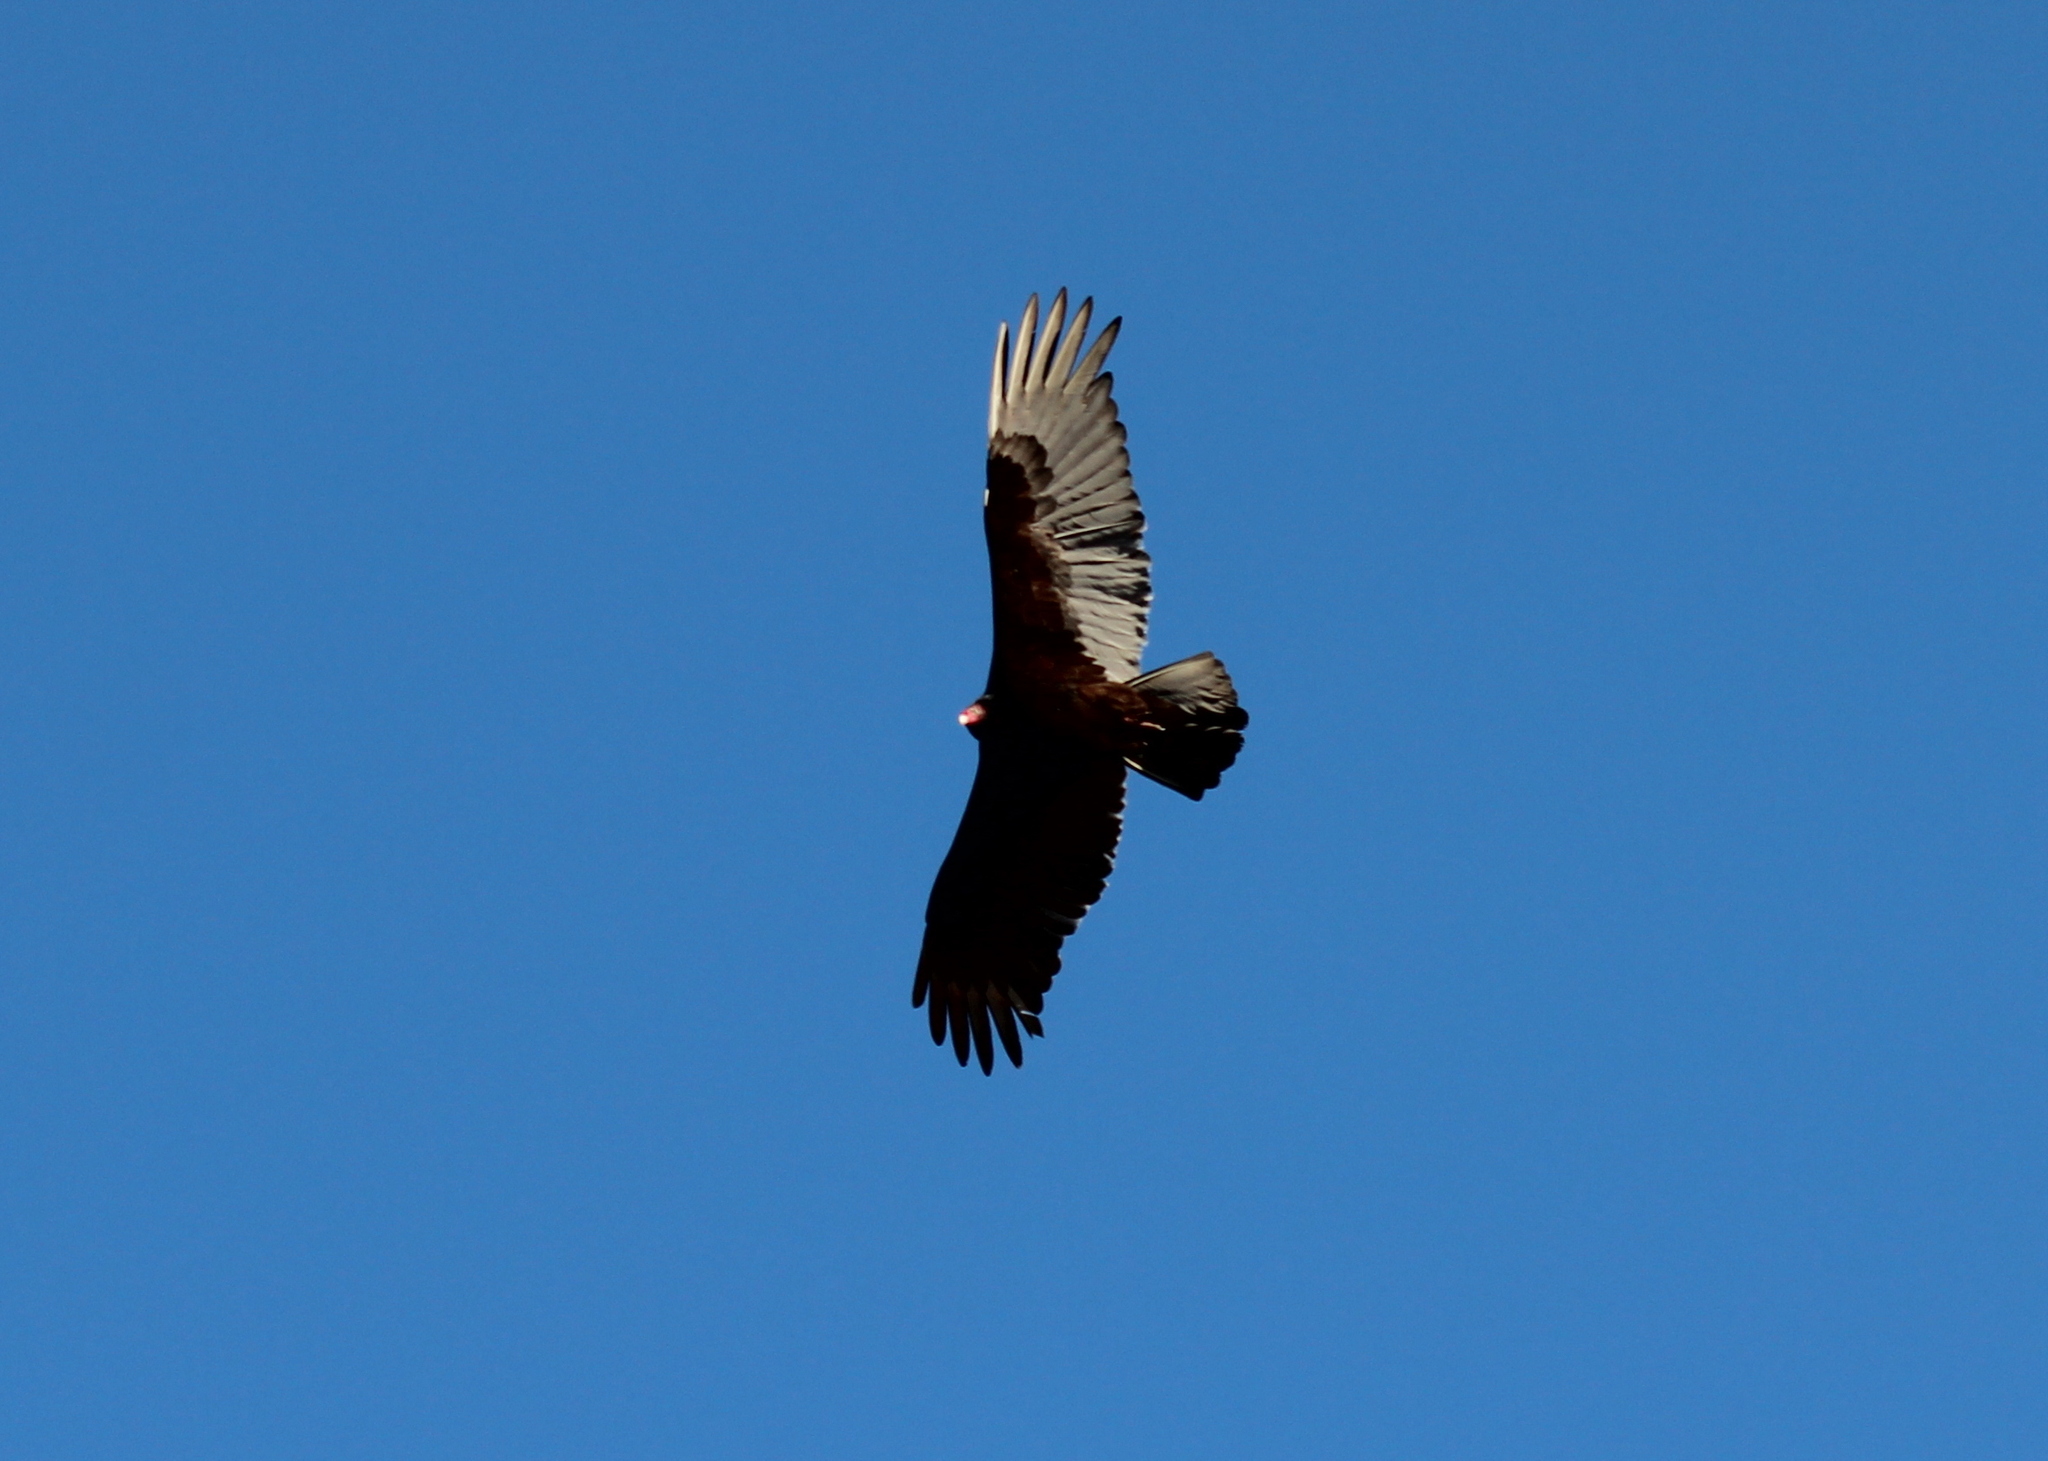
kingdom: Animalia
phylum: Chordata
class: Aves
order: Accipitriformes
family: Cathartidae
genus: Cathartes
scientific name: Cathartes aura
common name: Turkey vulture
